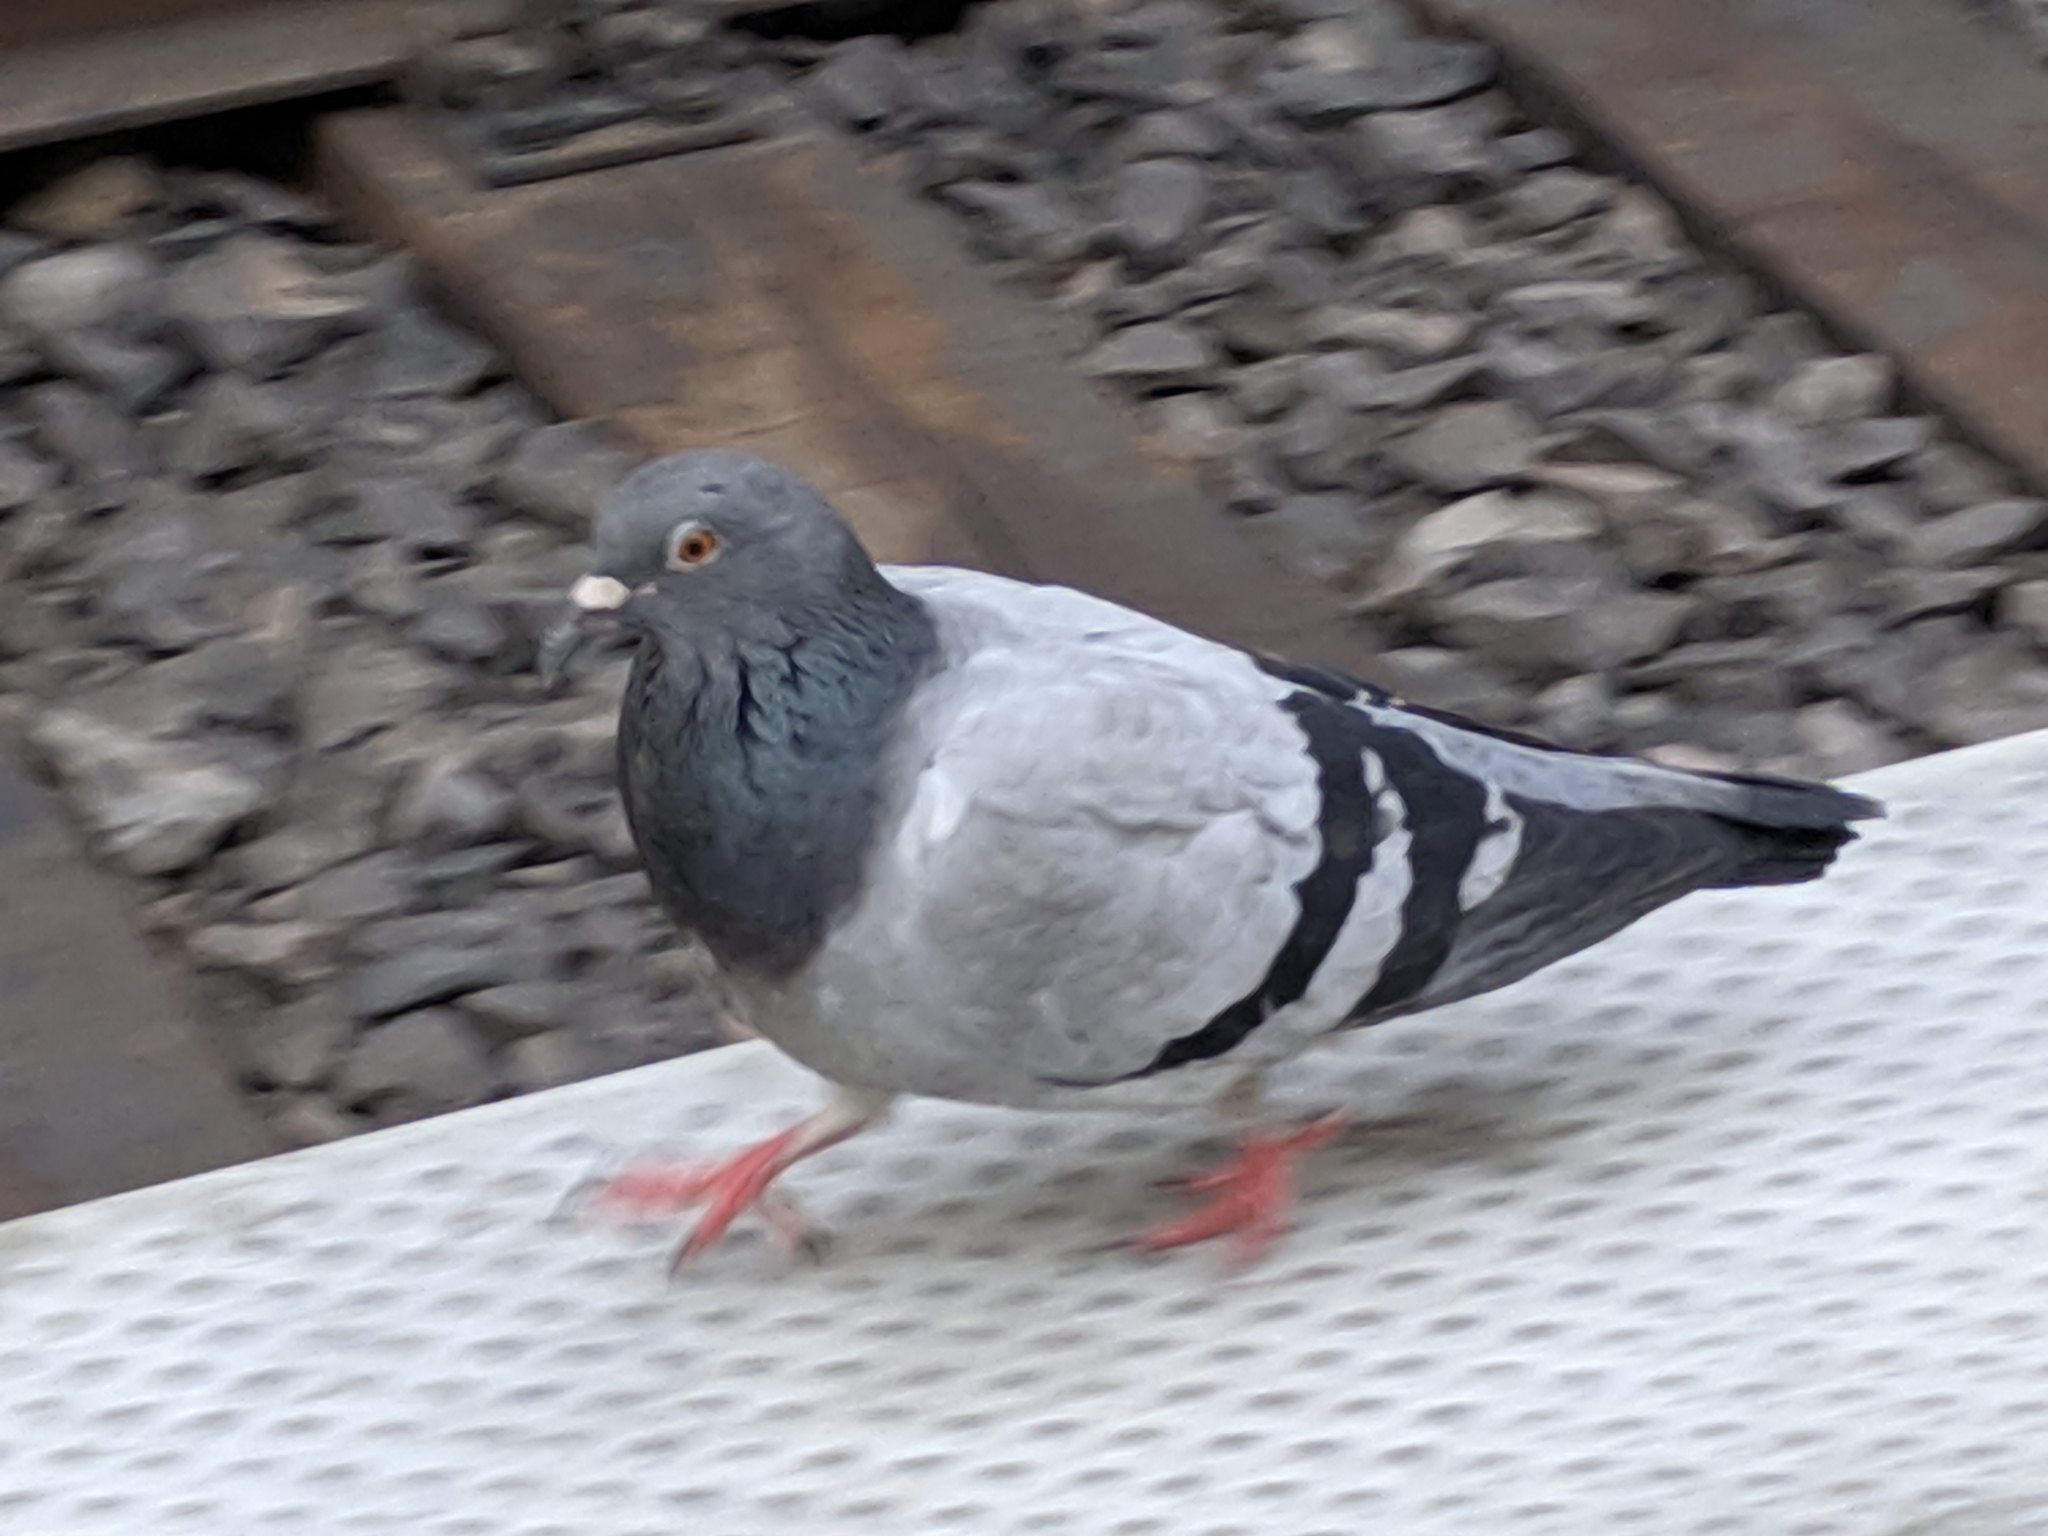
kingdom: Animalia
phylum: Chordata
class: Aves
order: Columbiformes
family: Columbidae
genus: Columba
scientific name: Columba livia
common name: Rock pigeon
